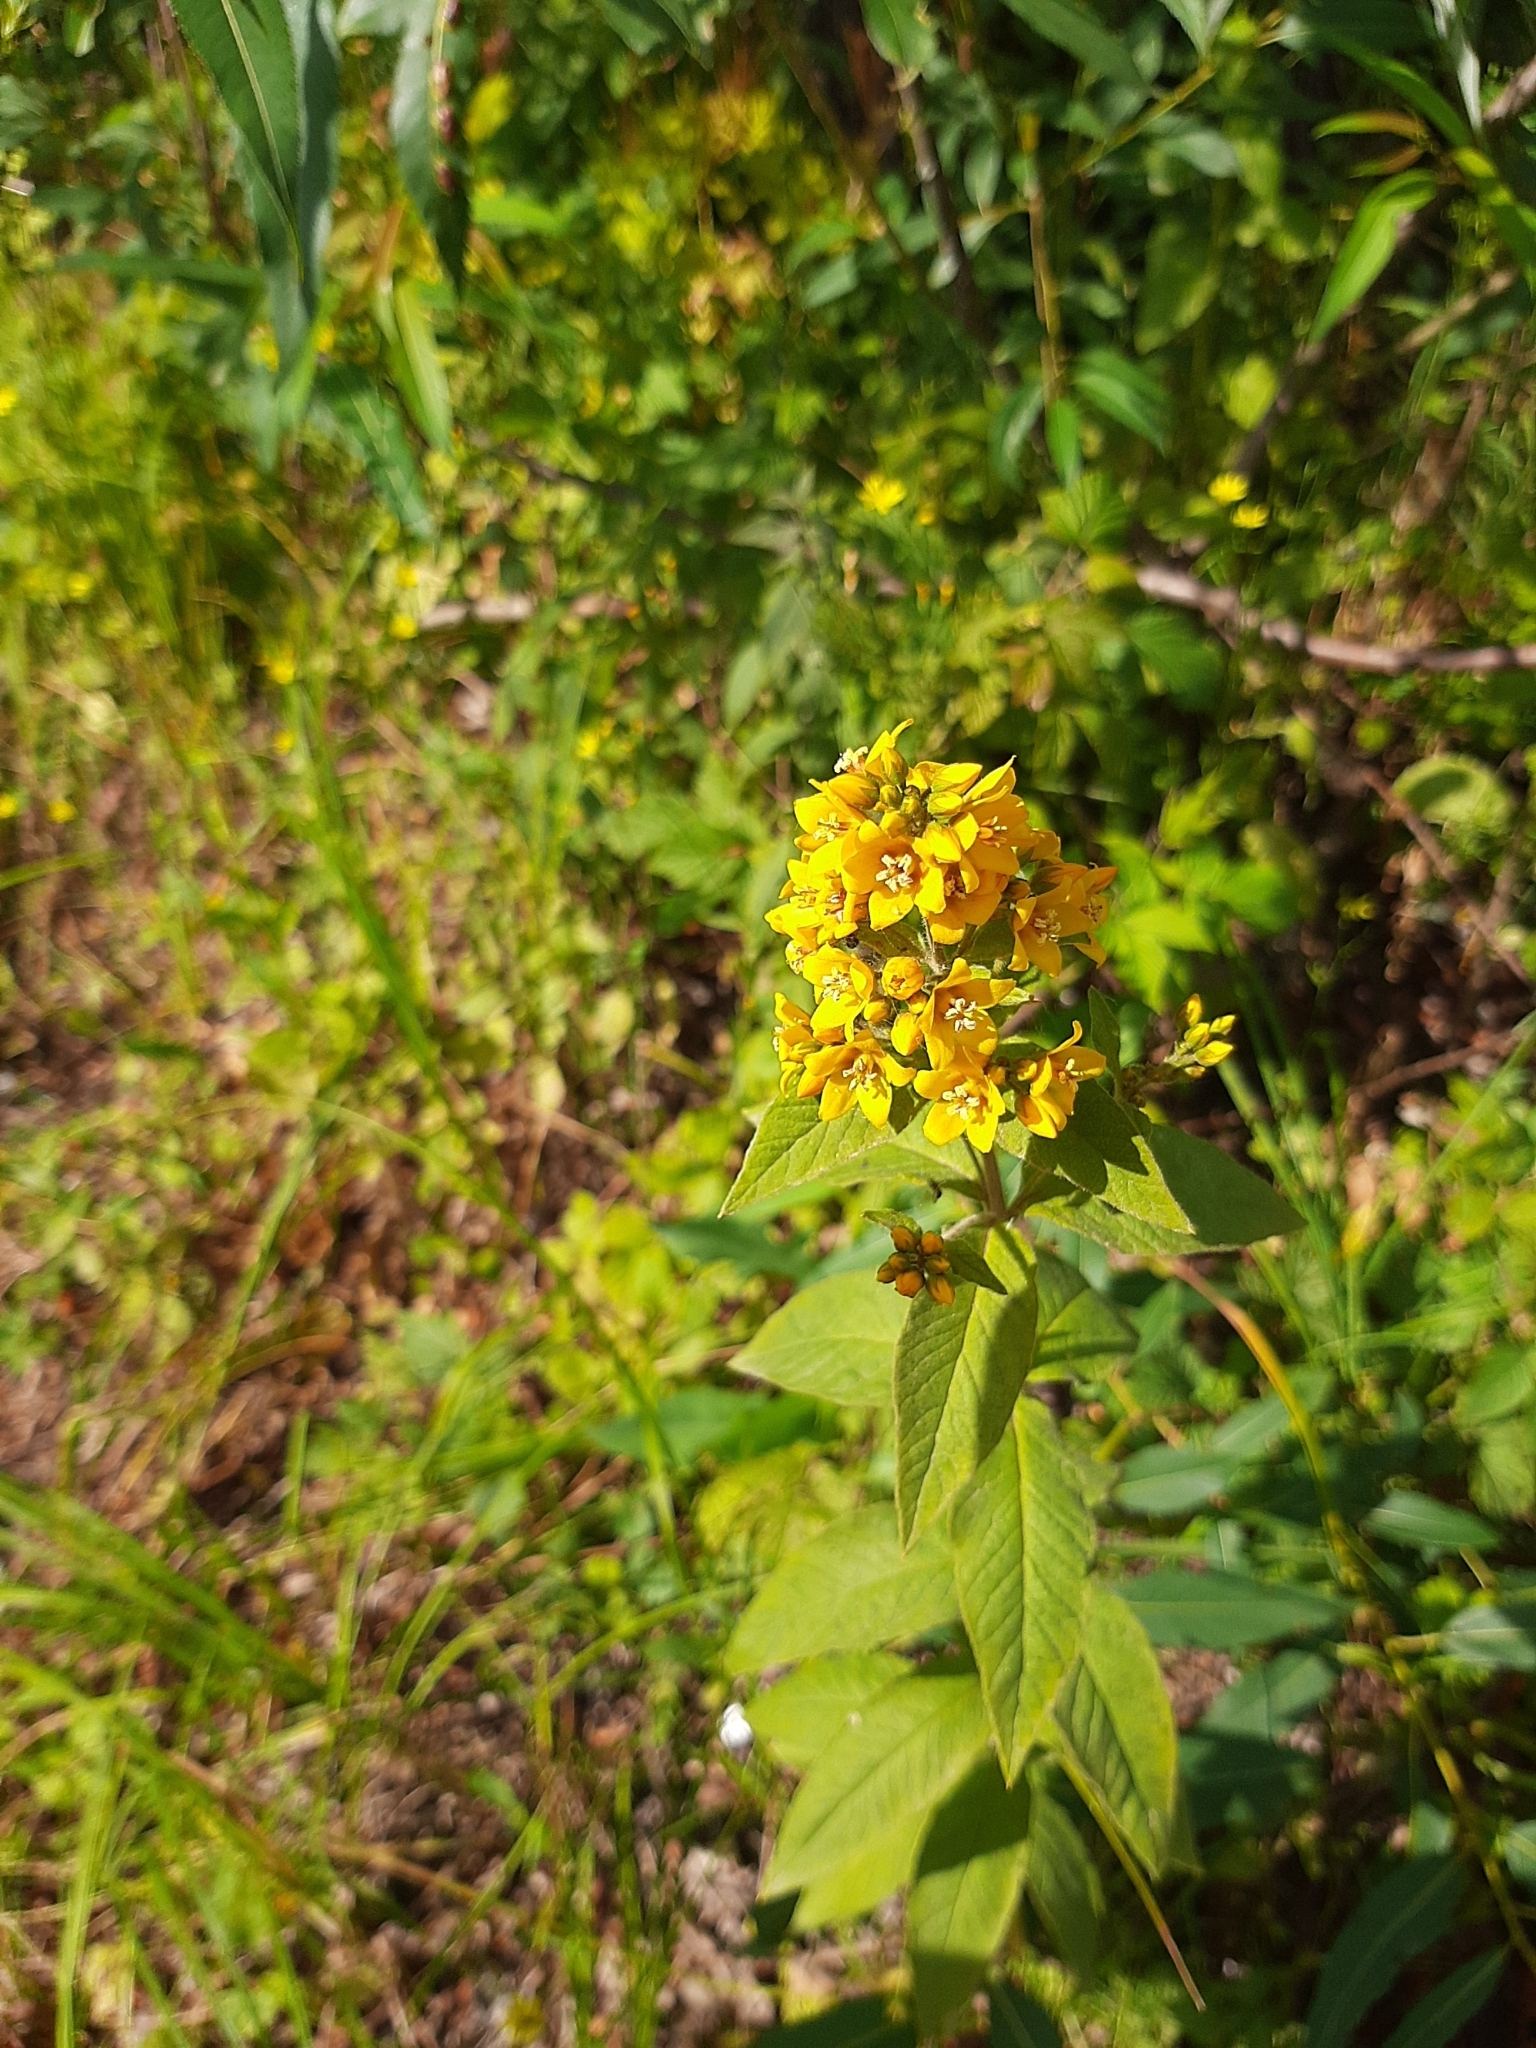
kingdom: Plantae
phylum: Tracheophyta
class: Magnoliopsida
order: Ericales
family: Primulaceae
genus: Lysimachia
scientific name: Lysimachia vulgaris
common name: Yellow loosestrife
